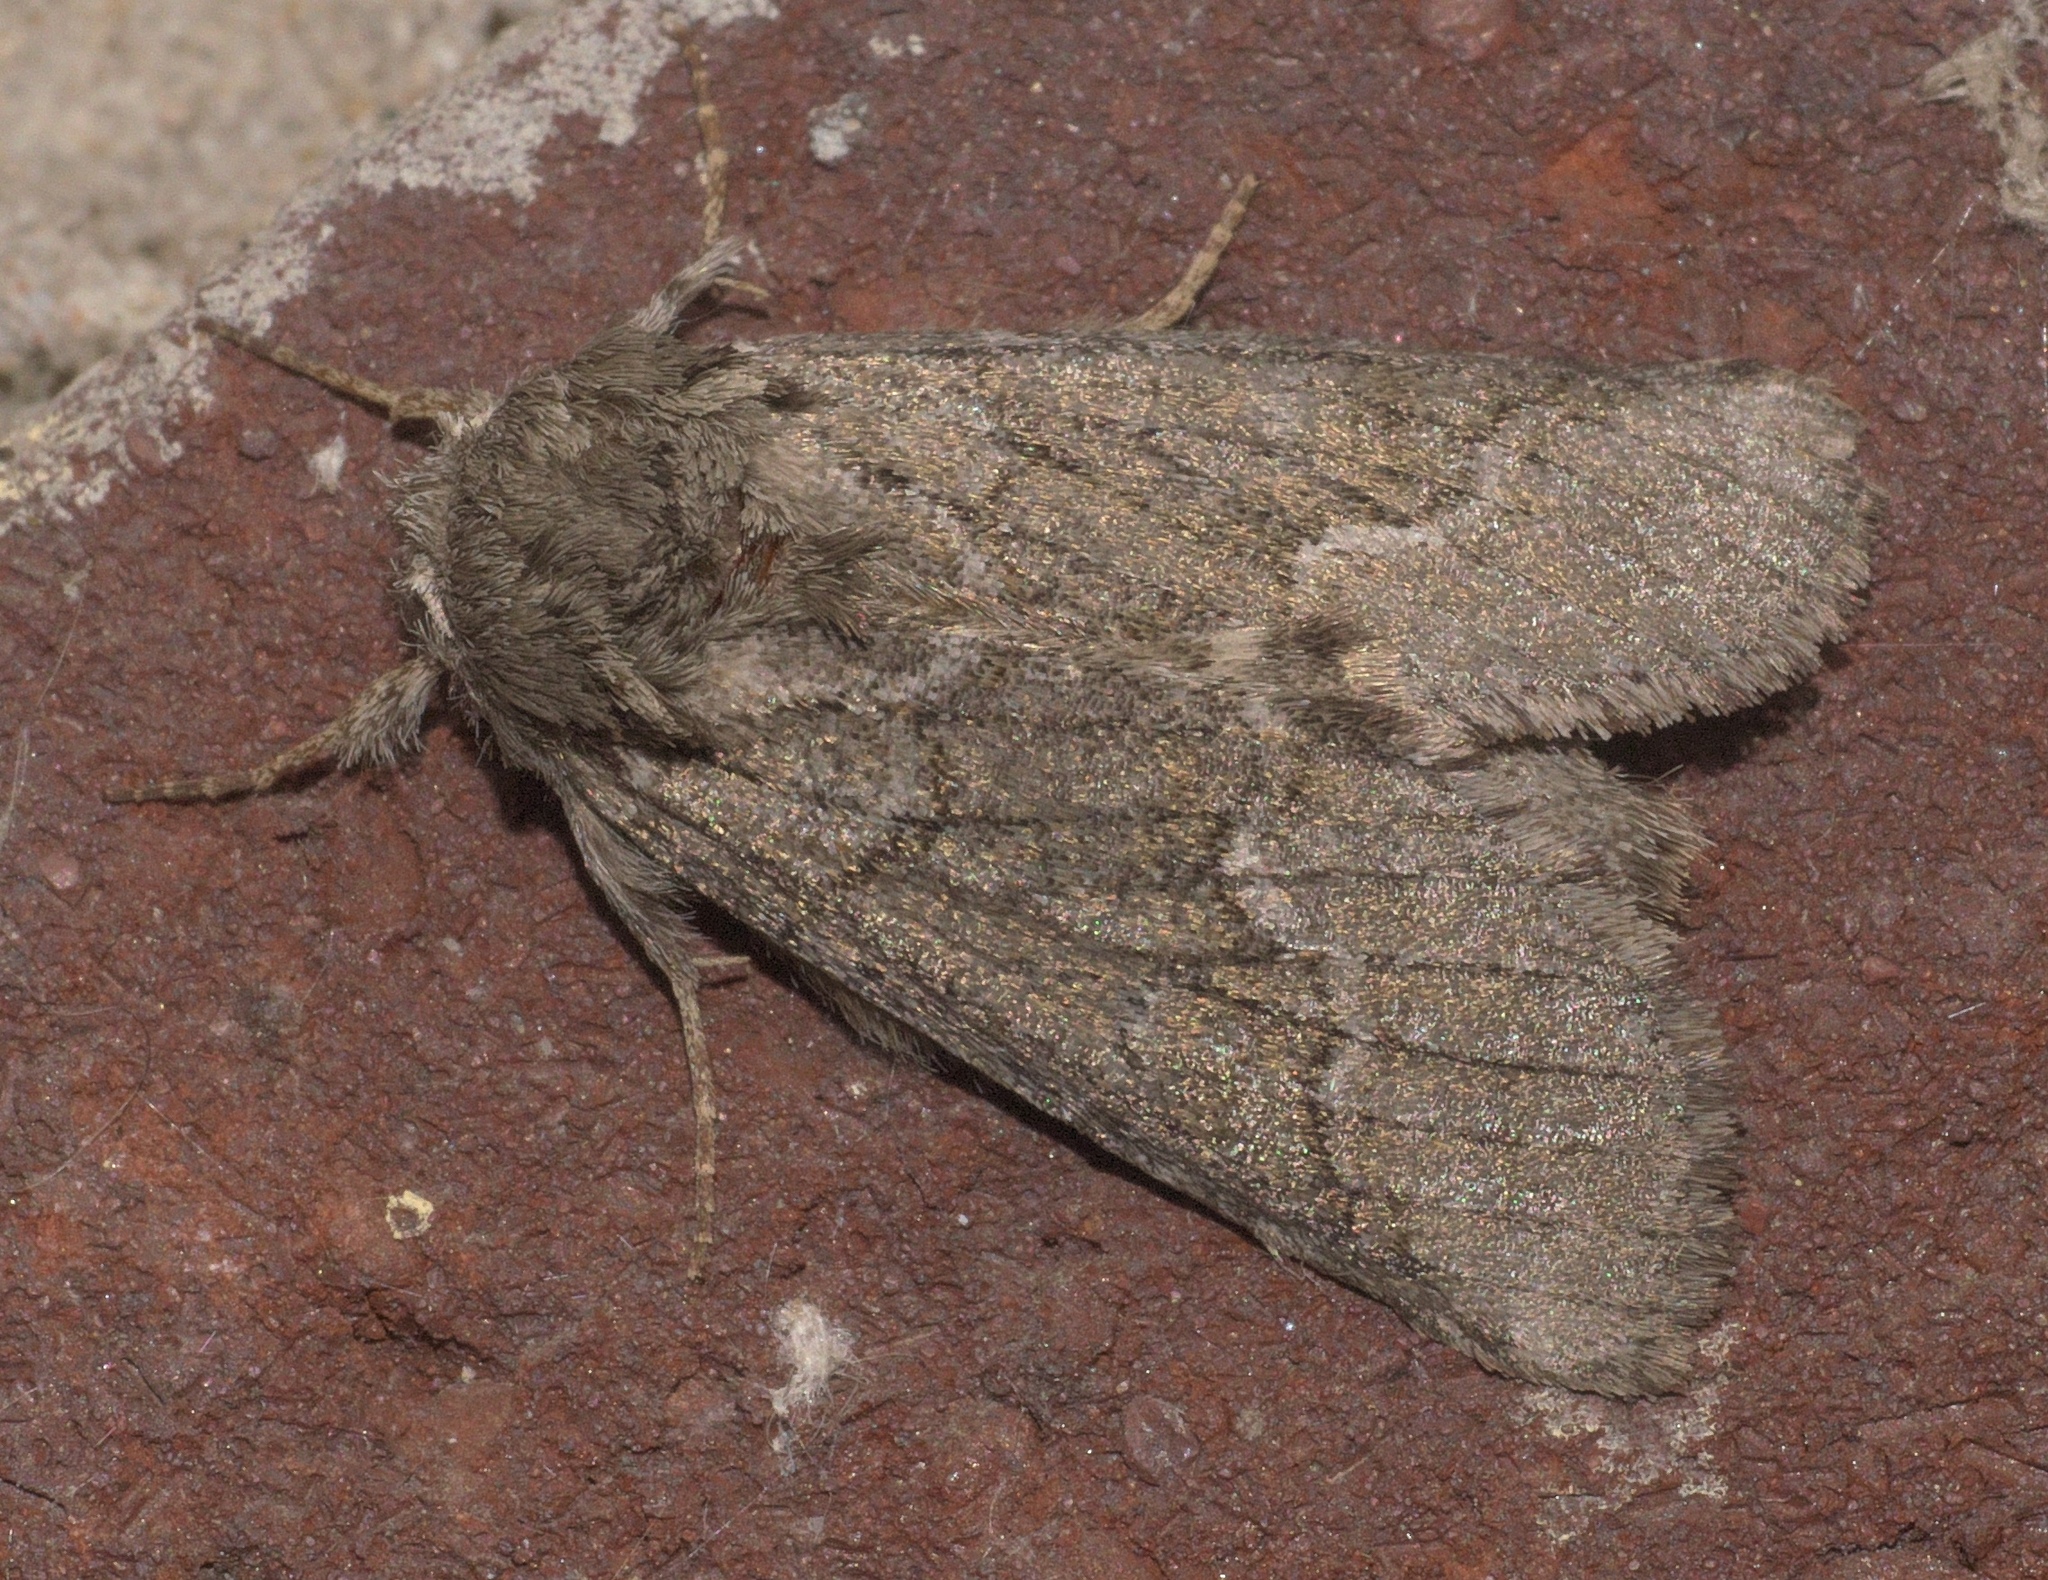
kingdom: Animalia
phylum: Arthropoda
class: Insecta
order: Lepidoptera
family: Notodontidae
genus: Lochmaeus
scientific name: Lochmaeus bilineata
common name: Double-lined prominent
